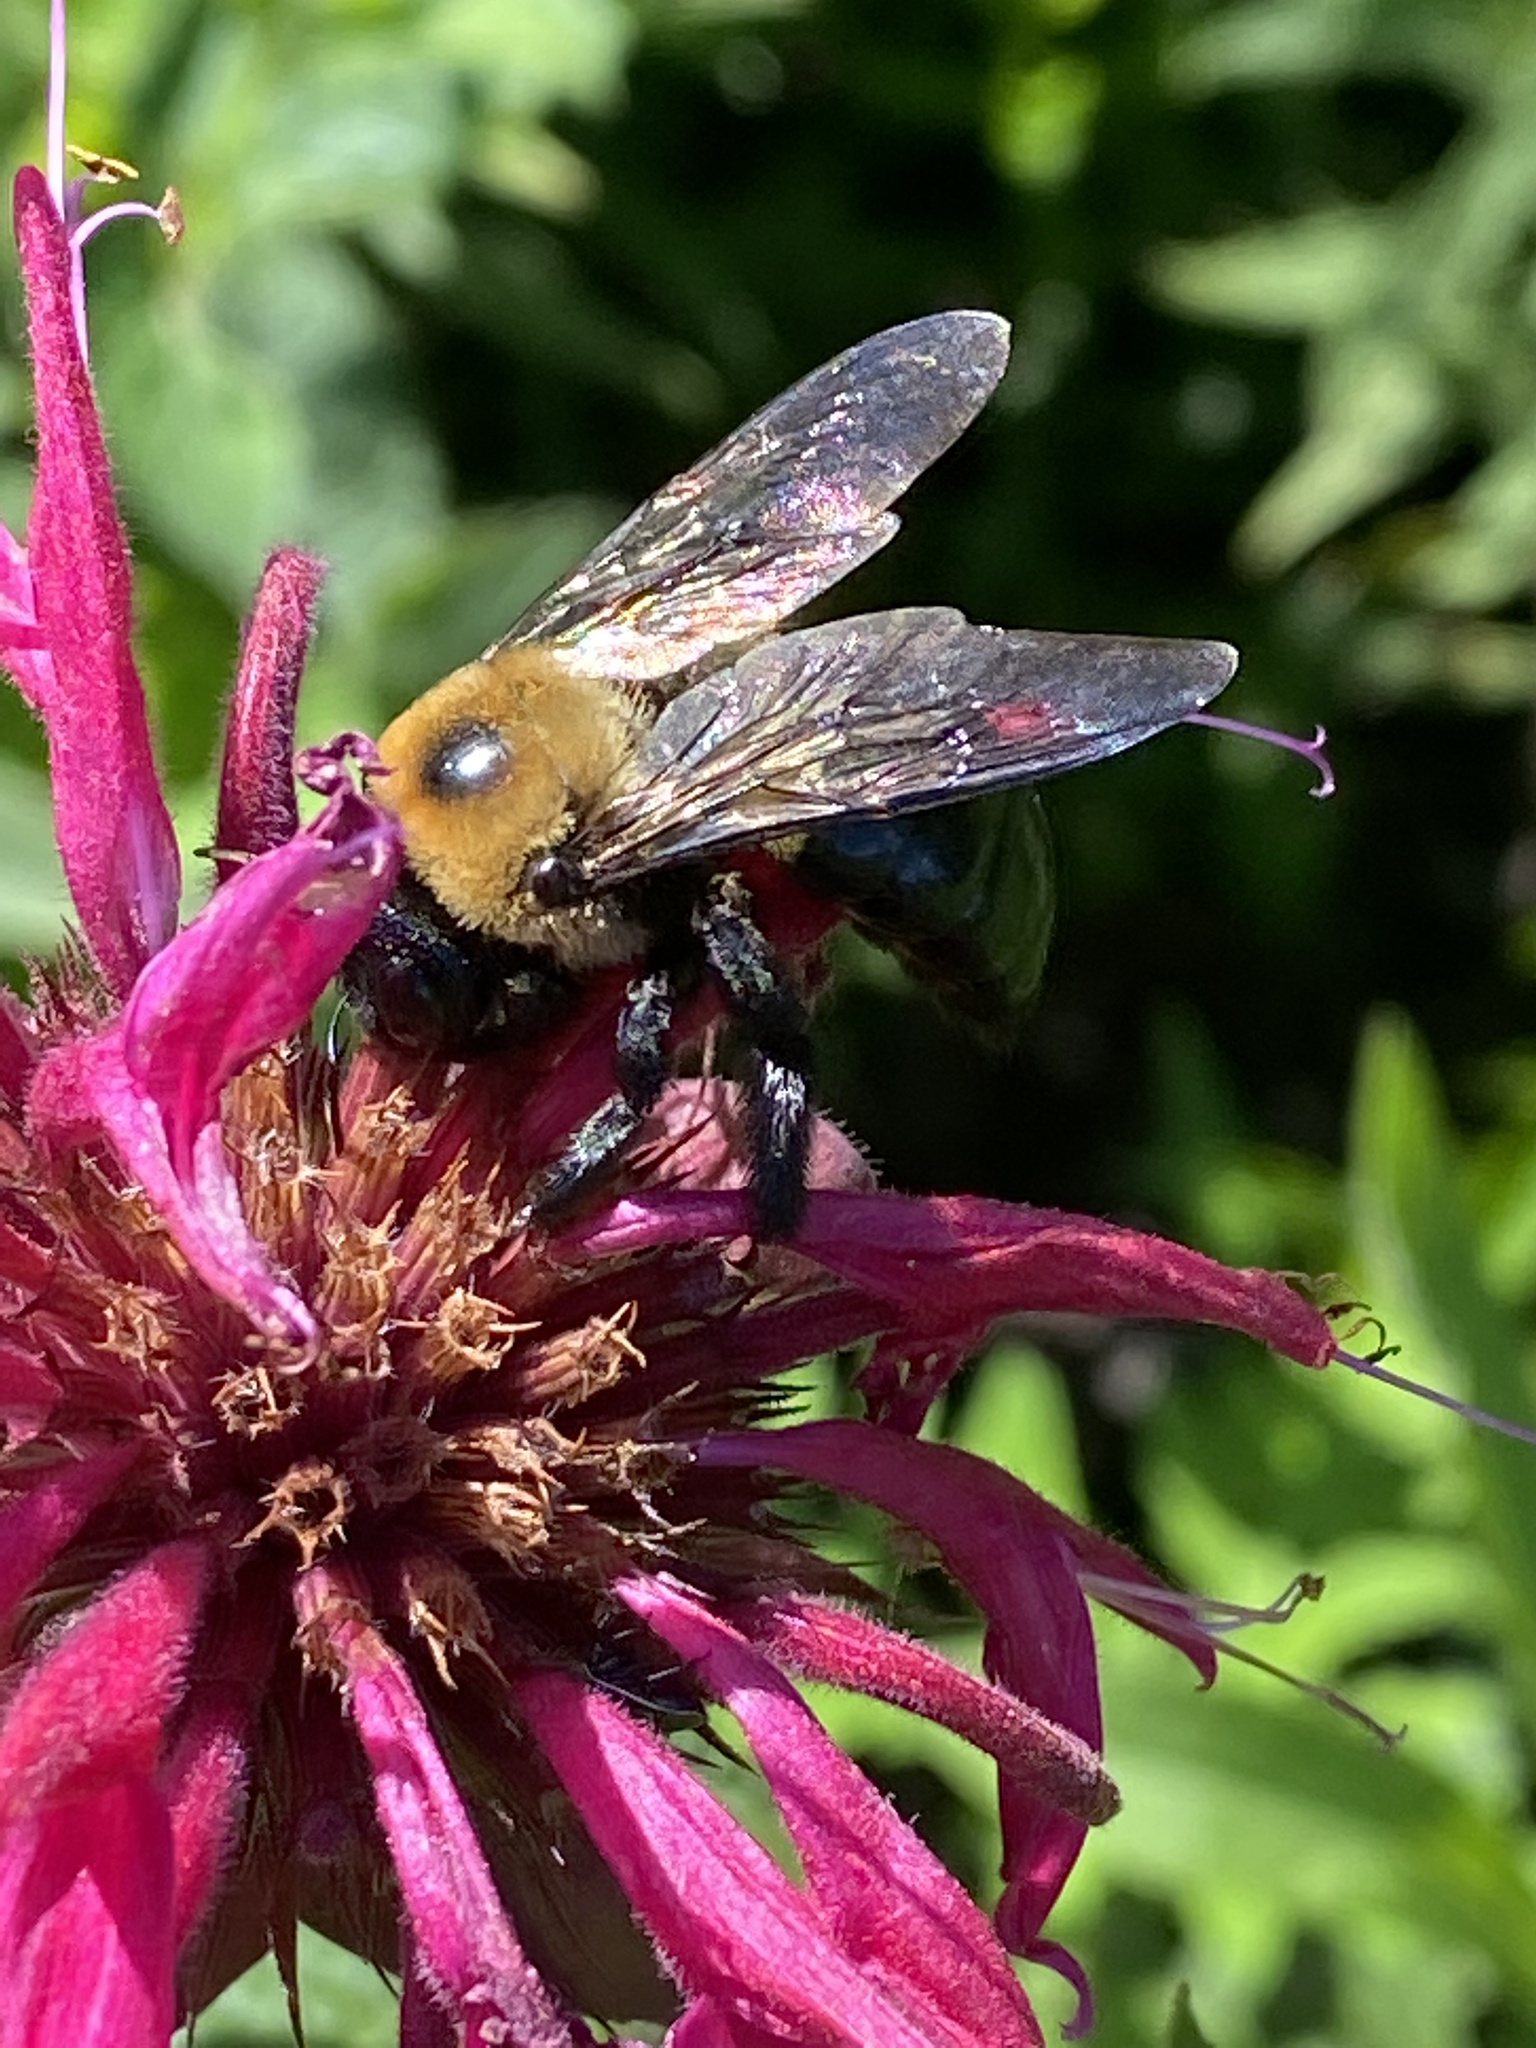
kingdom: Animalia
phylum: Arthropoda
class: Insecta
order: Hymenoptera
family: Apidae
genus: Xylocopa
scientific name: Xylocopa virginica
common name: Carpenter bee
